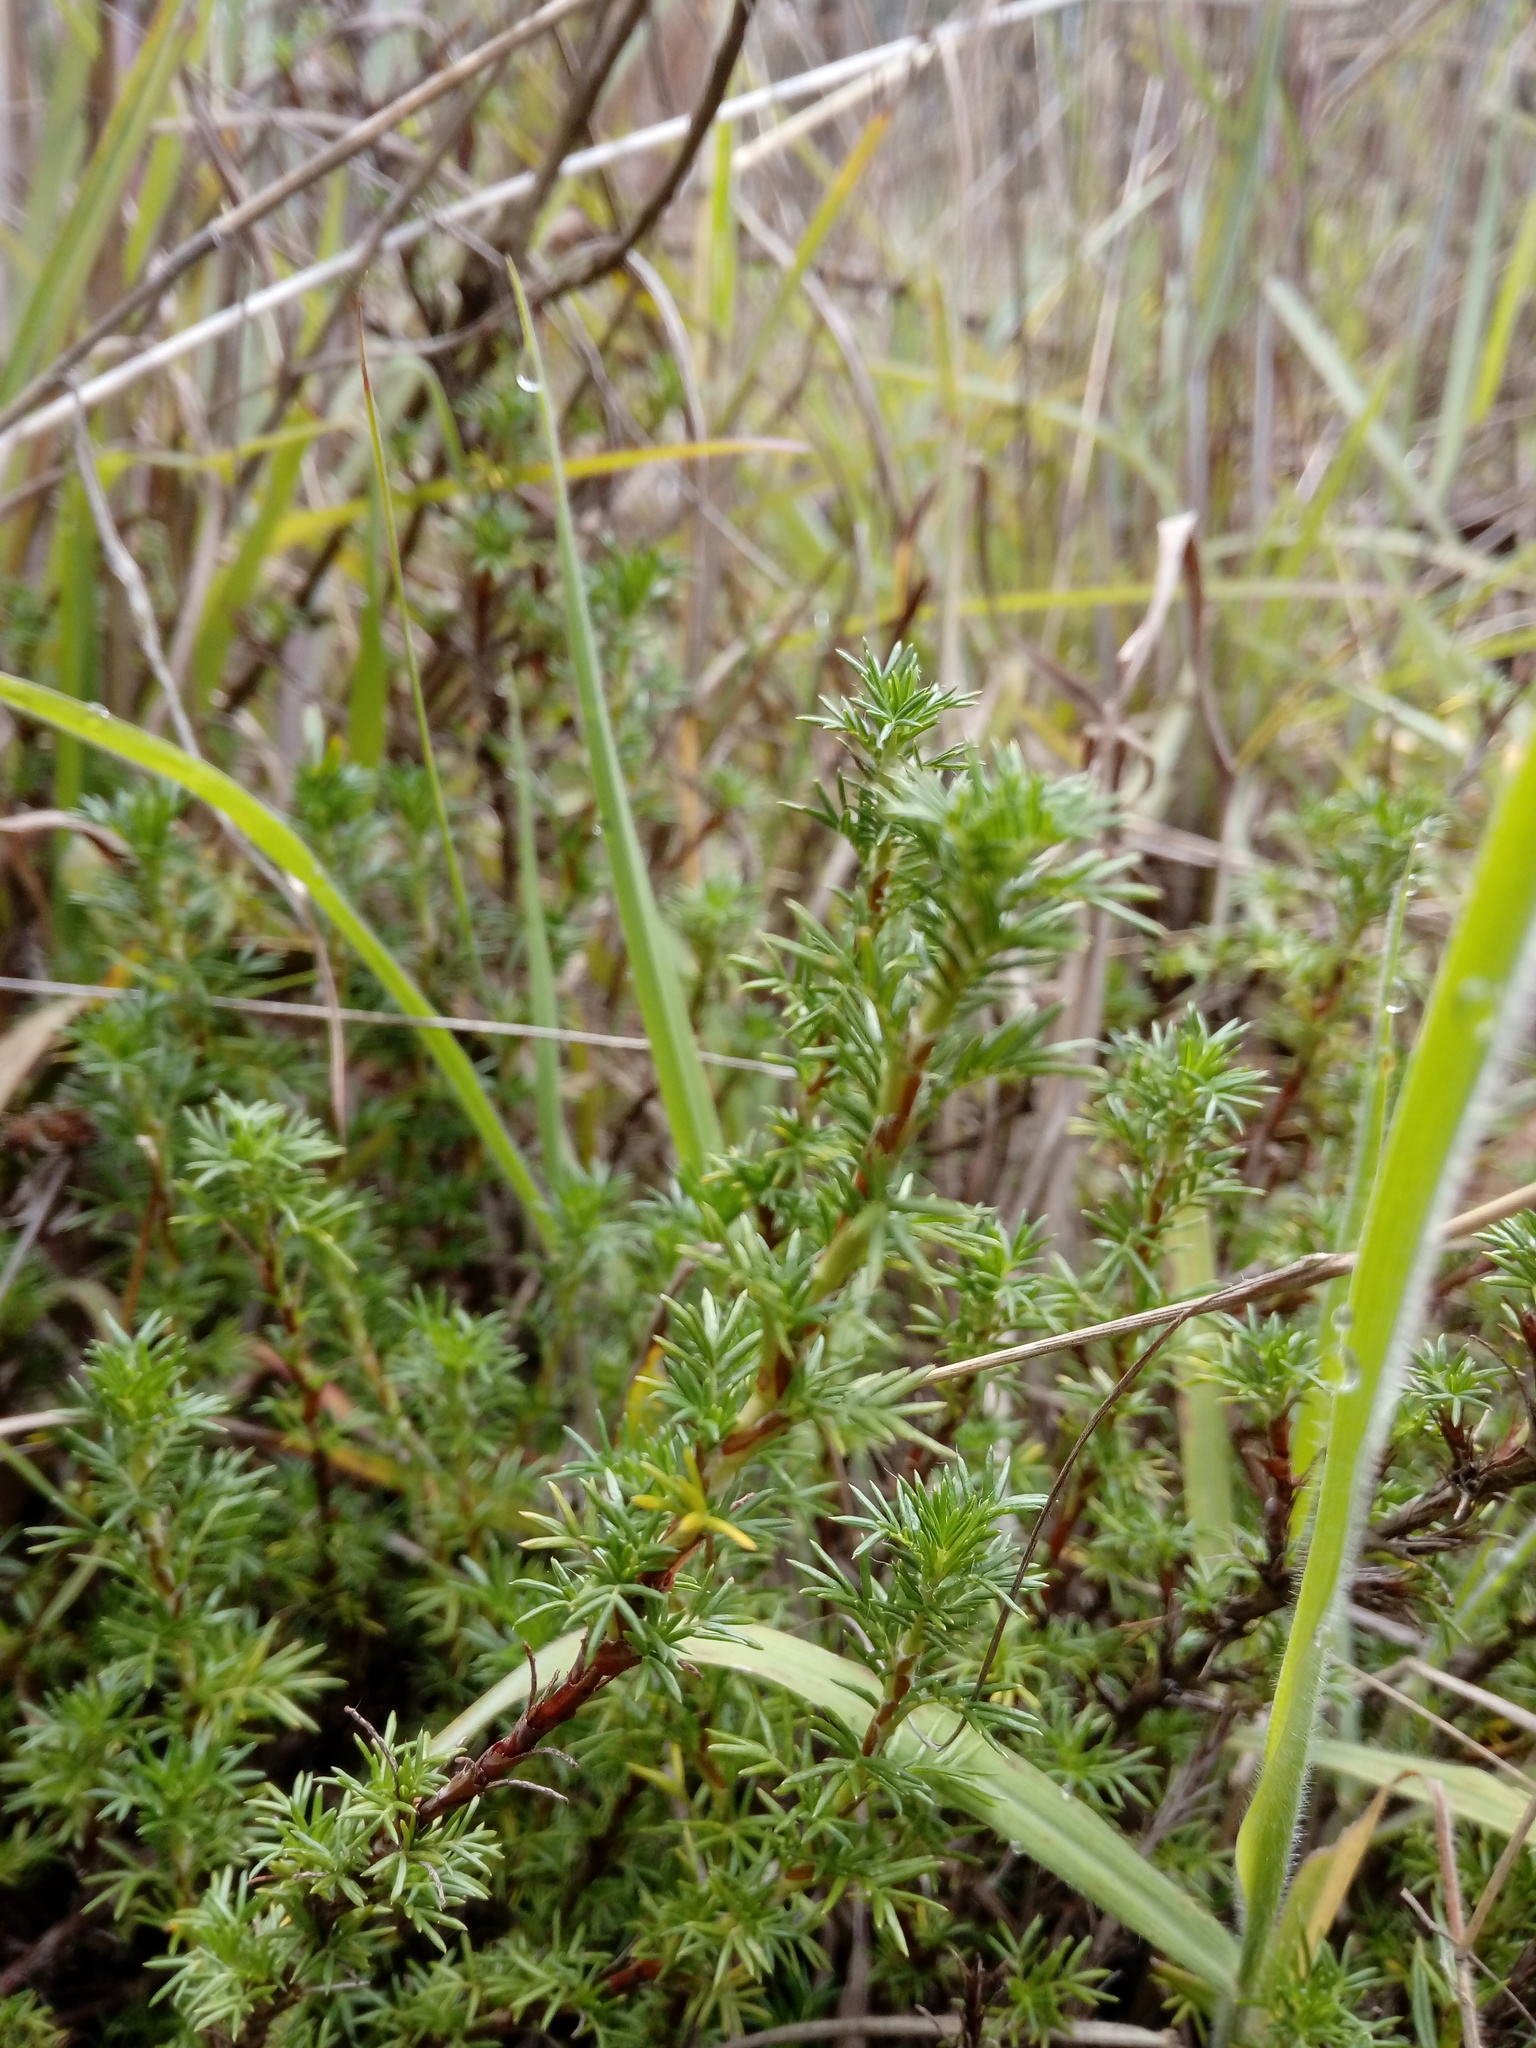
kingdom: Plantae
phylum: Tracheophyta
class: Magnoliopsida
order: Rosales
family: Rosaceae
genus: Margyricarpus
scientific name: Margyricarpus pinnatus
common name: Pearlfruit
